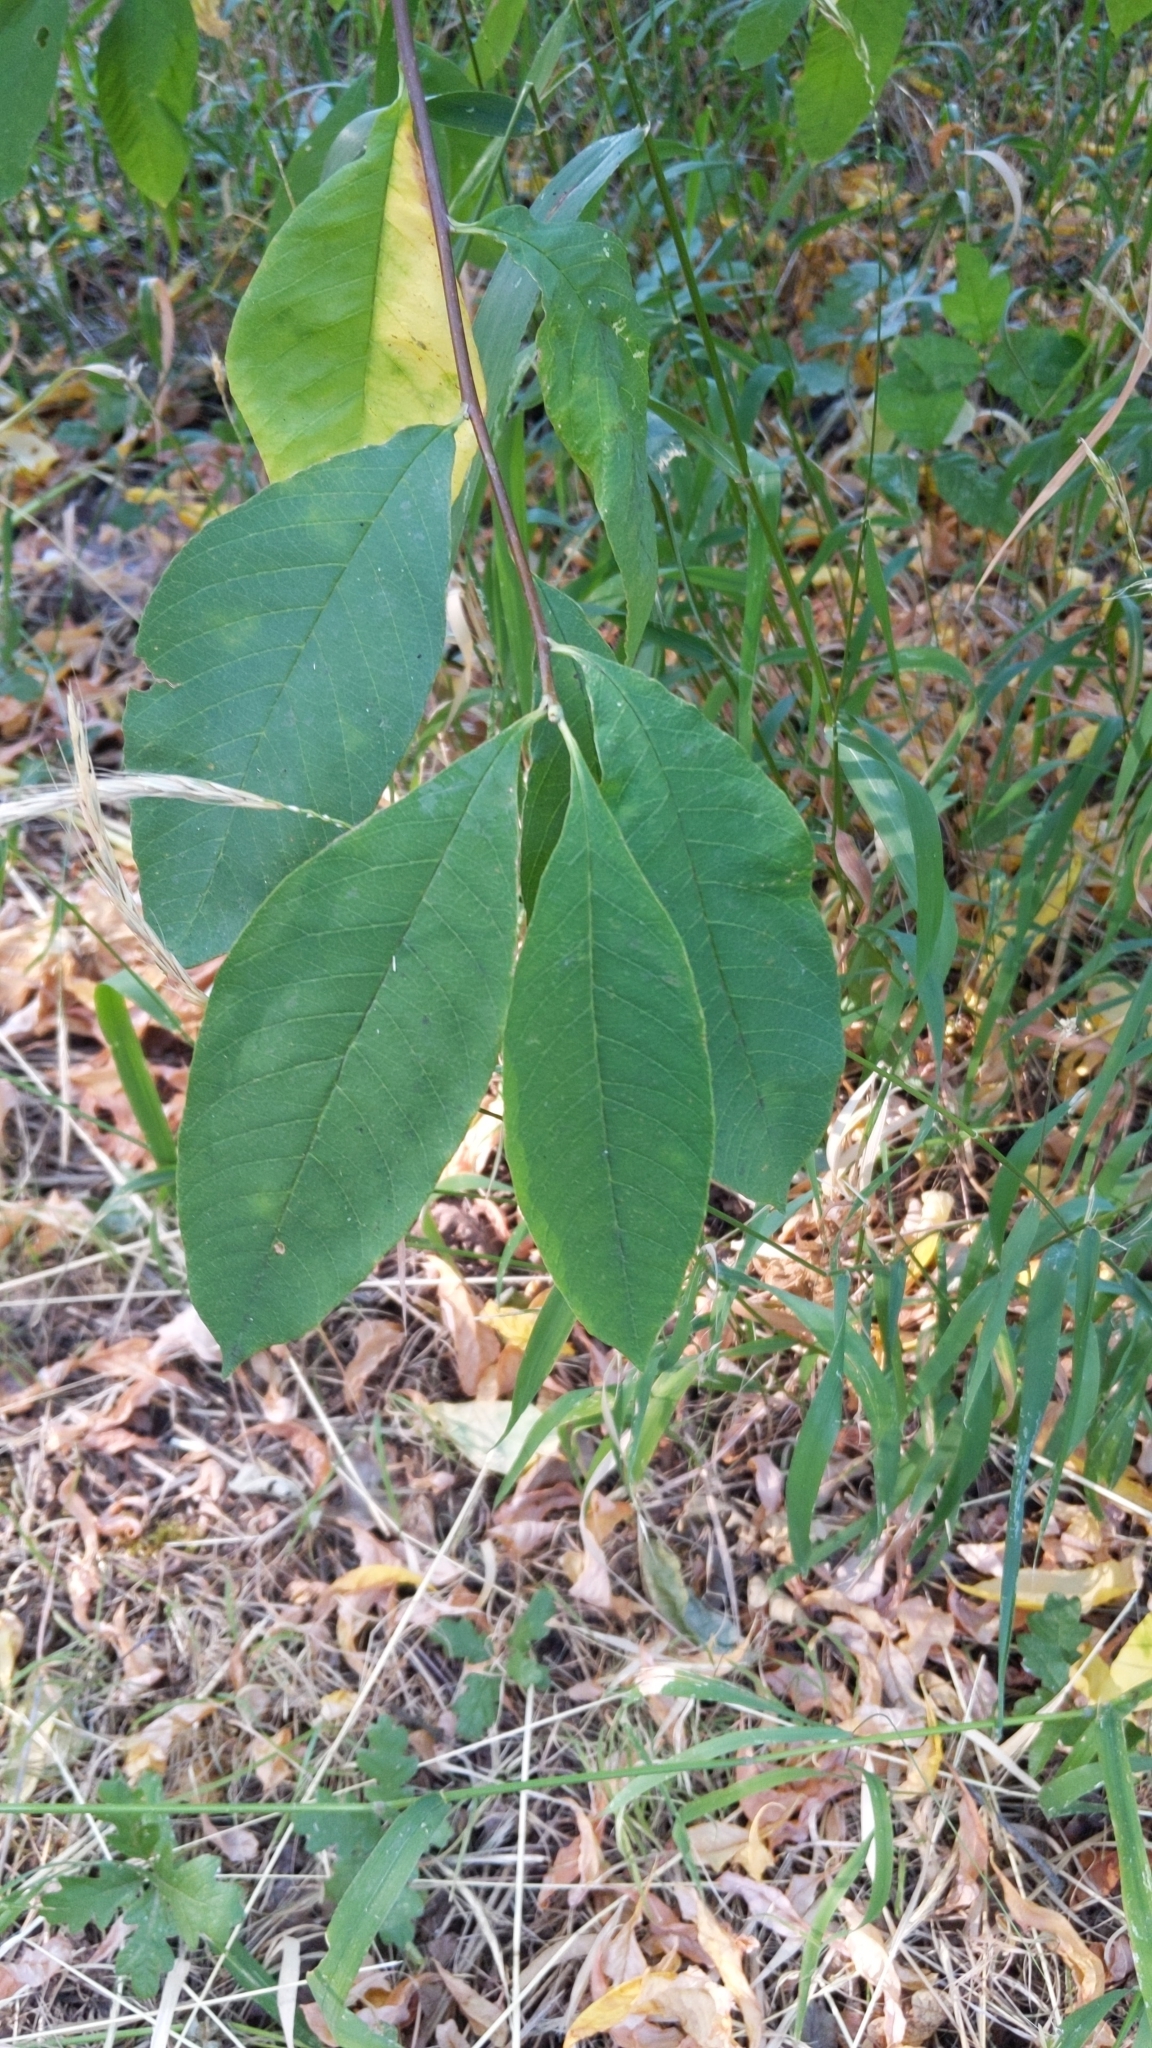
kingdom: Plantae
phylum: Tracheophyta
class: Magnoliopsida
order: Rosales
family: Rosaceae
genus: Oemleria
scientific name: Oemleria cerasiformis
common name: Osoberry
